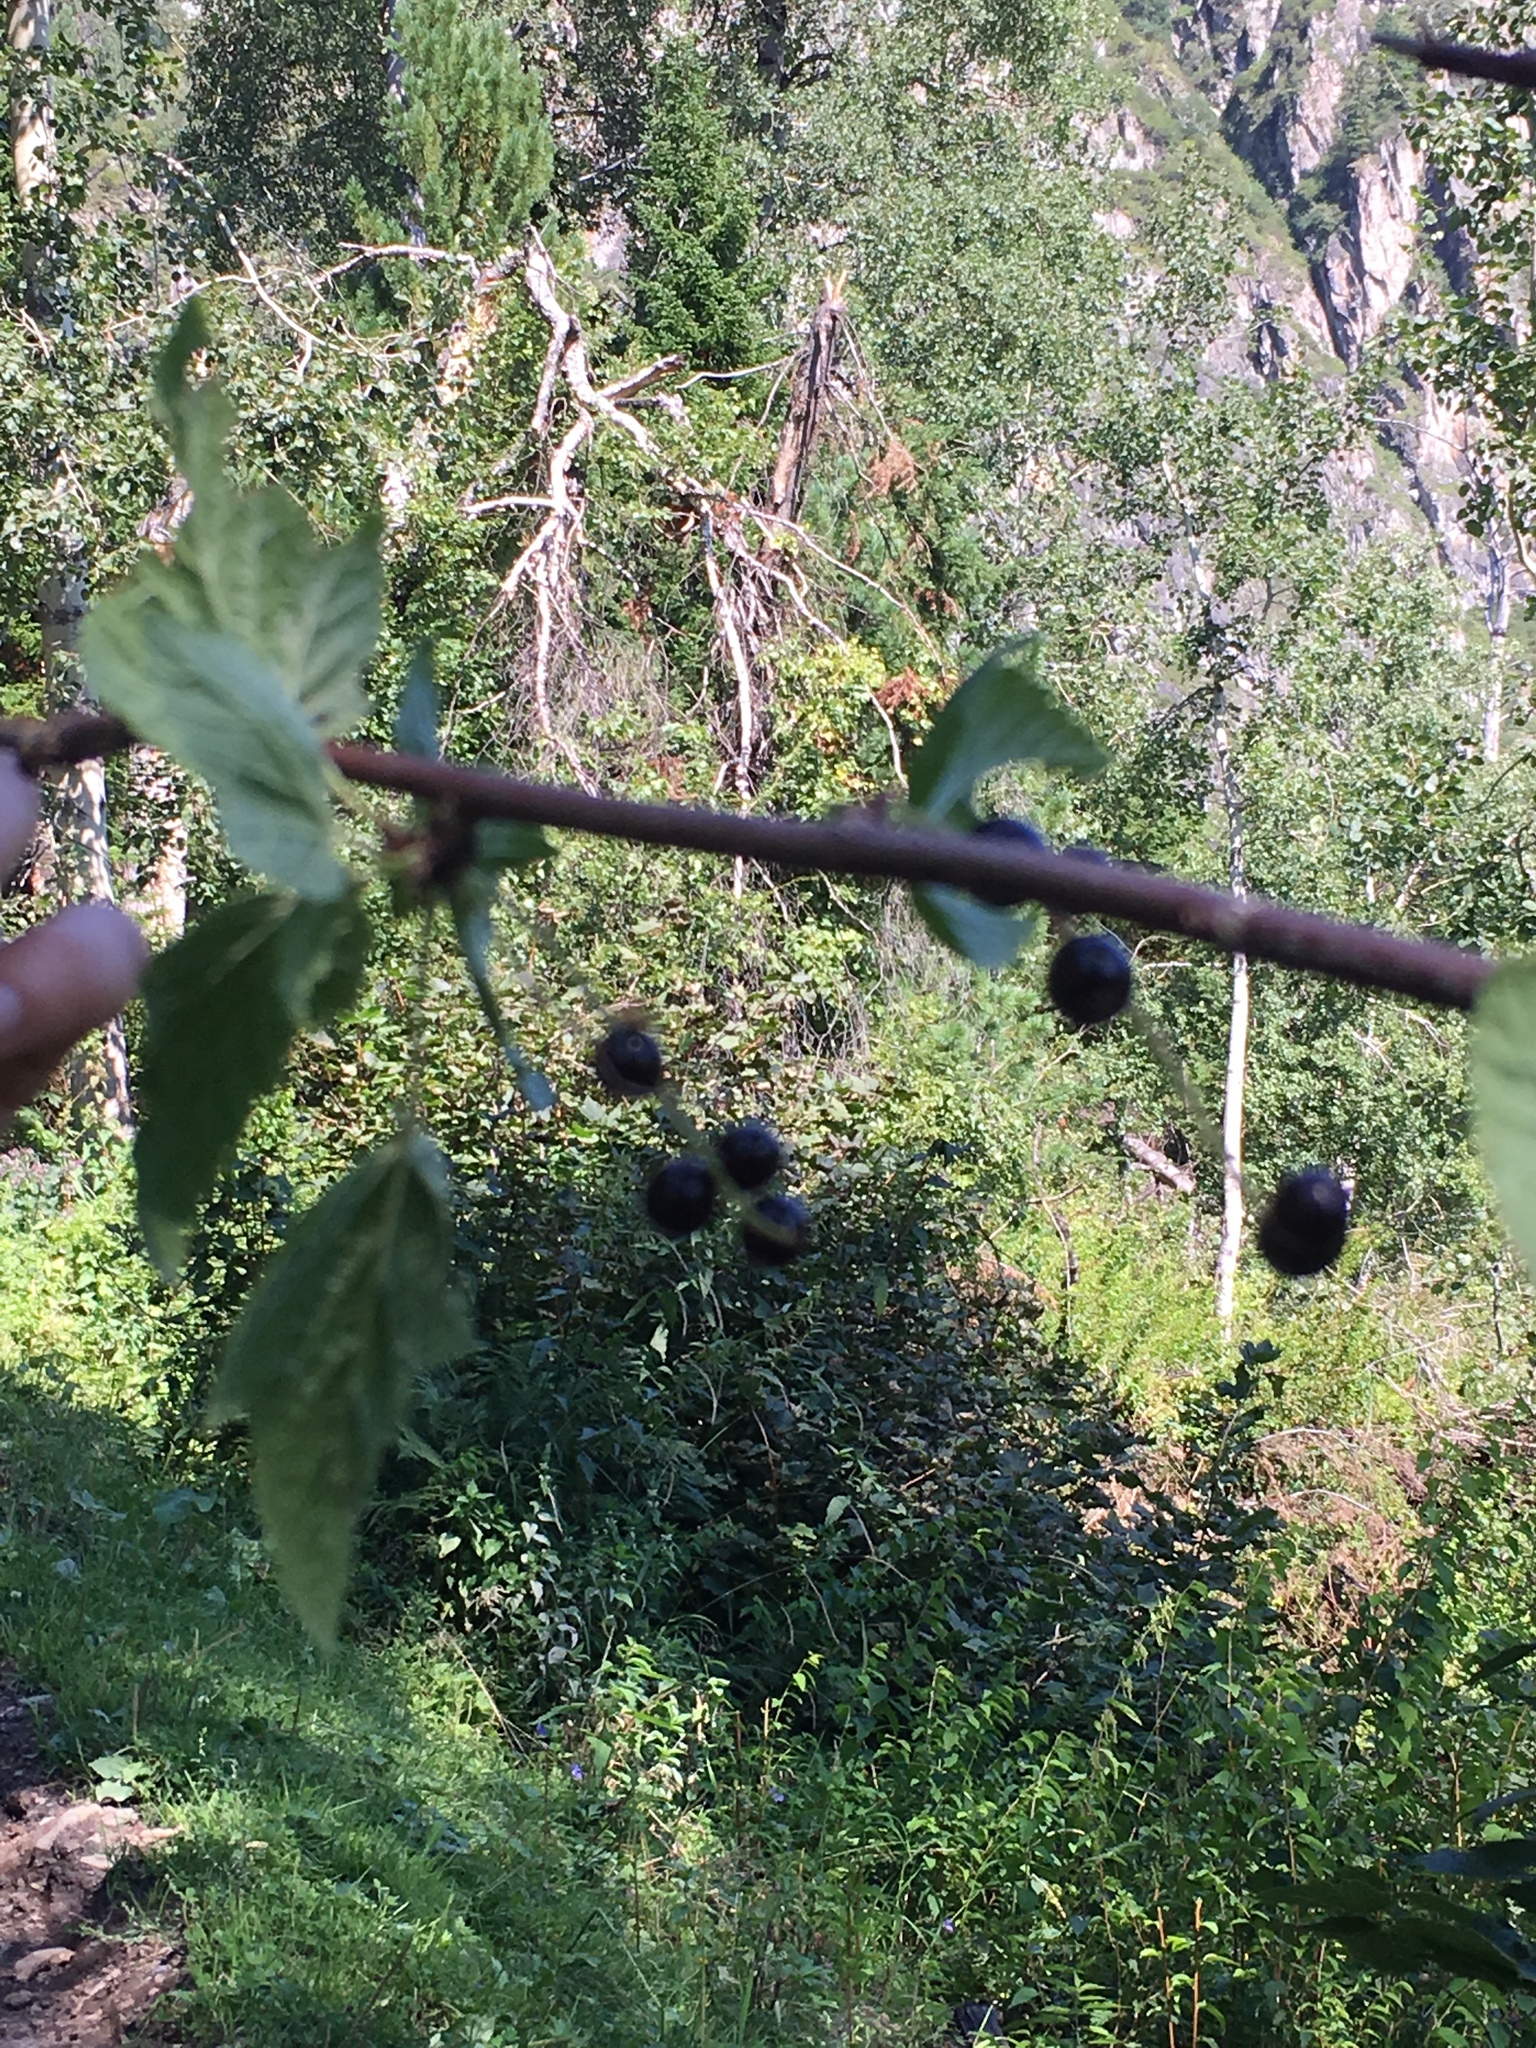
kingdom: Plantae
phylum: Tracheophyta
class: Magnoliopsida
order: Saxifragales
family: Grossulariaceae
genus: Ribes
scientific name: Ribes petraeum
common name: Rock currant
